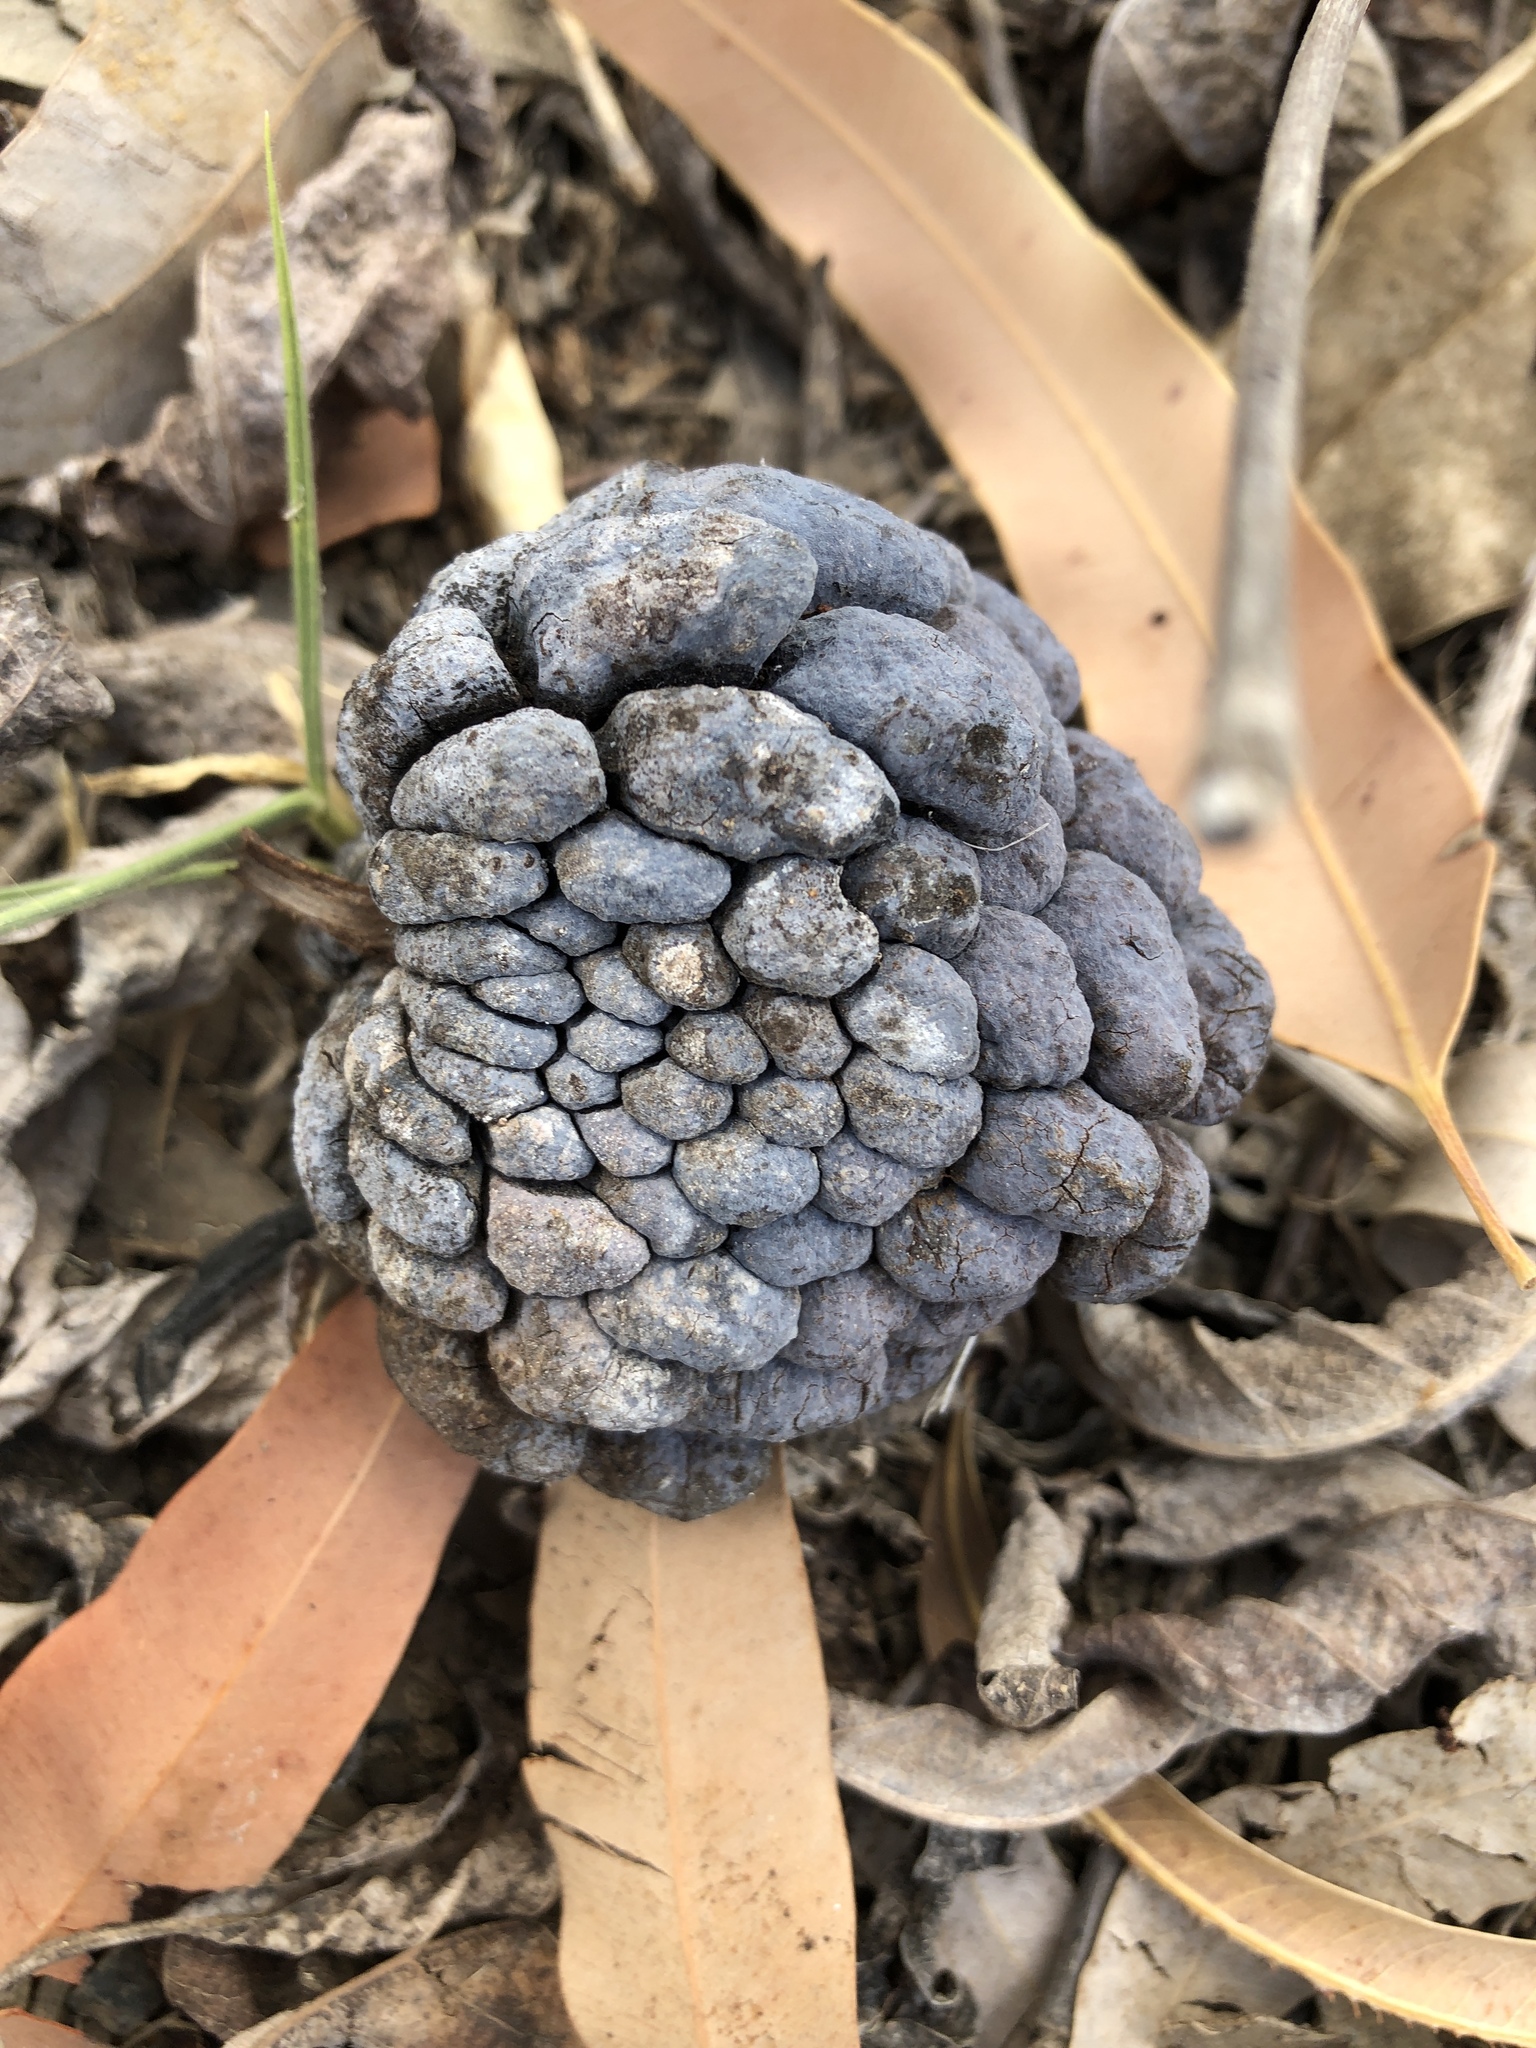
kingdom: Plantae
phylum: Tracheophyta
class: Magnoliopsida
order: Magnoliales
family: Annonaceae
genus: Annona
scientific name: Annona squamosa
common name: Custard-apple
